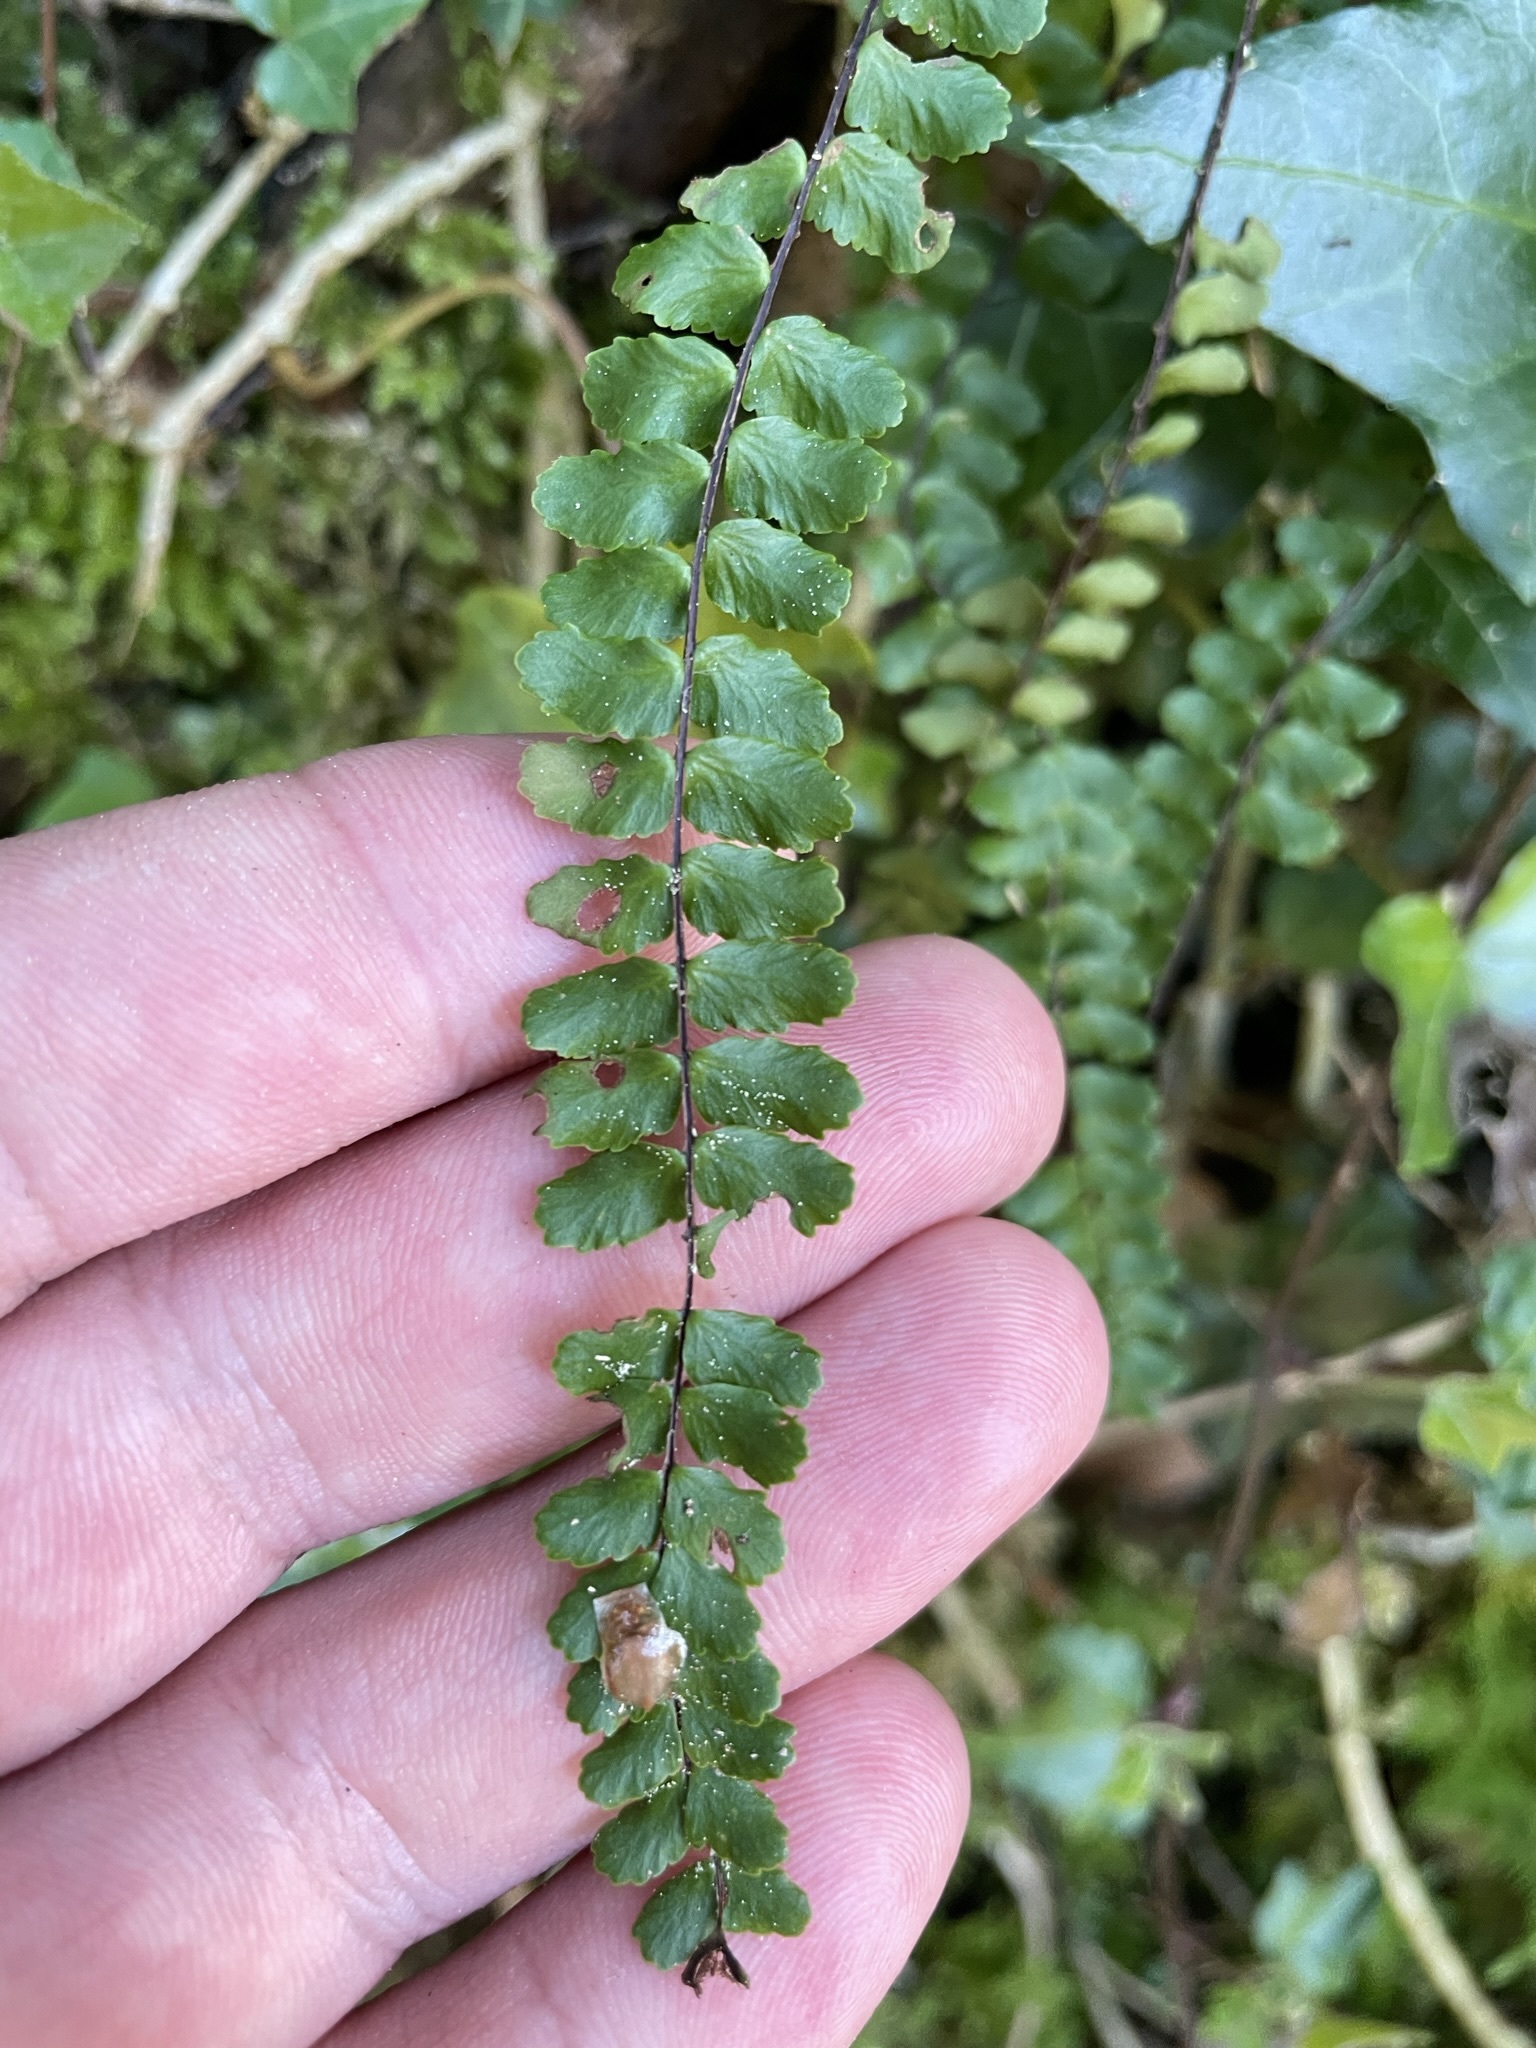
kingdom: Plantae
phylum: Tracheophyta
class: Polypodiopsida
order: Polypodiales
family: Aspleniaceae
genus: Asplenium
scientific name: Asplenium trichomanes
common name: Maidenhair spleenwort
